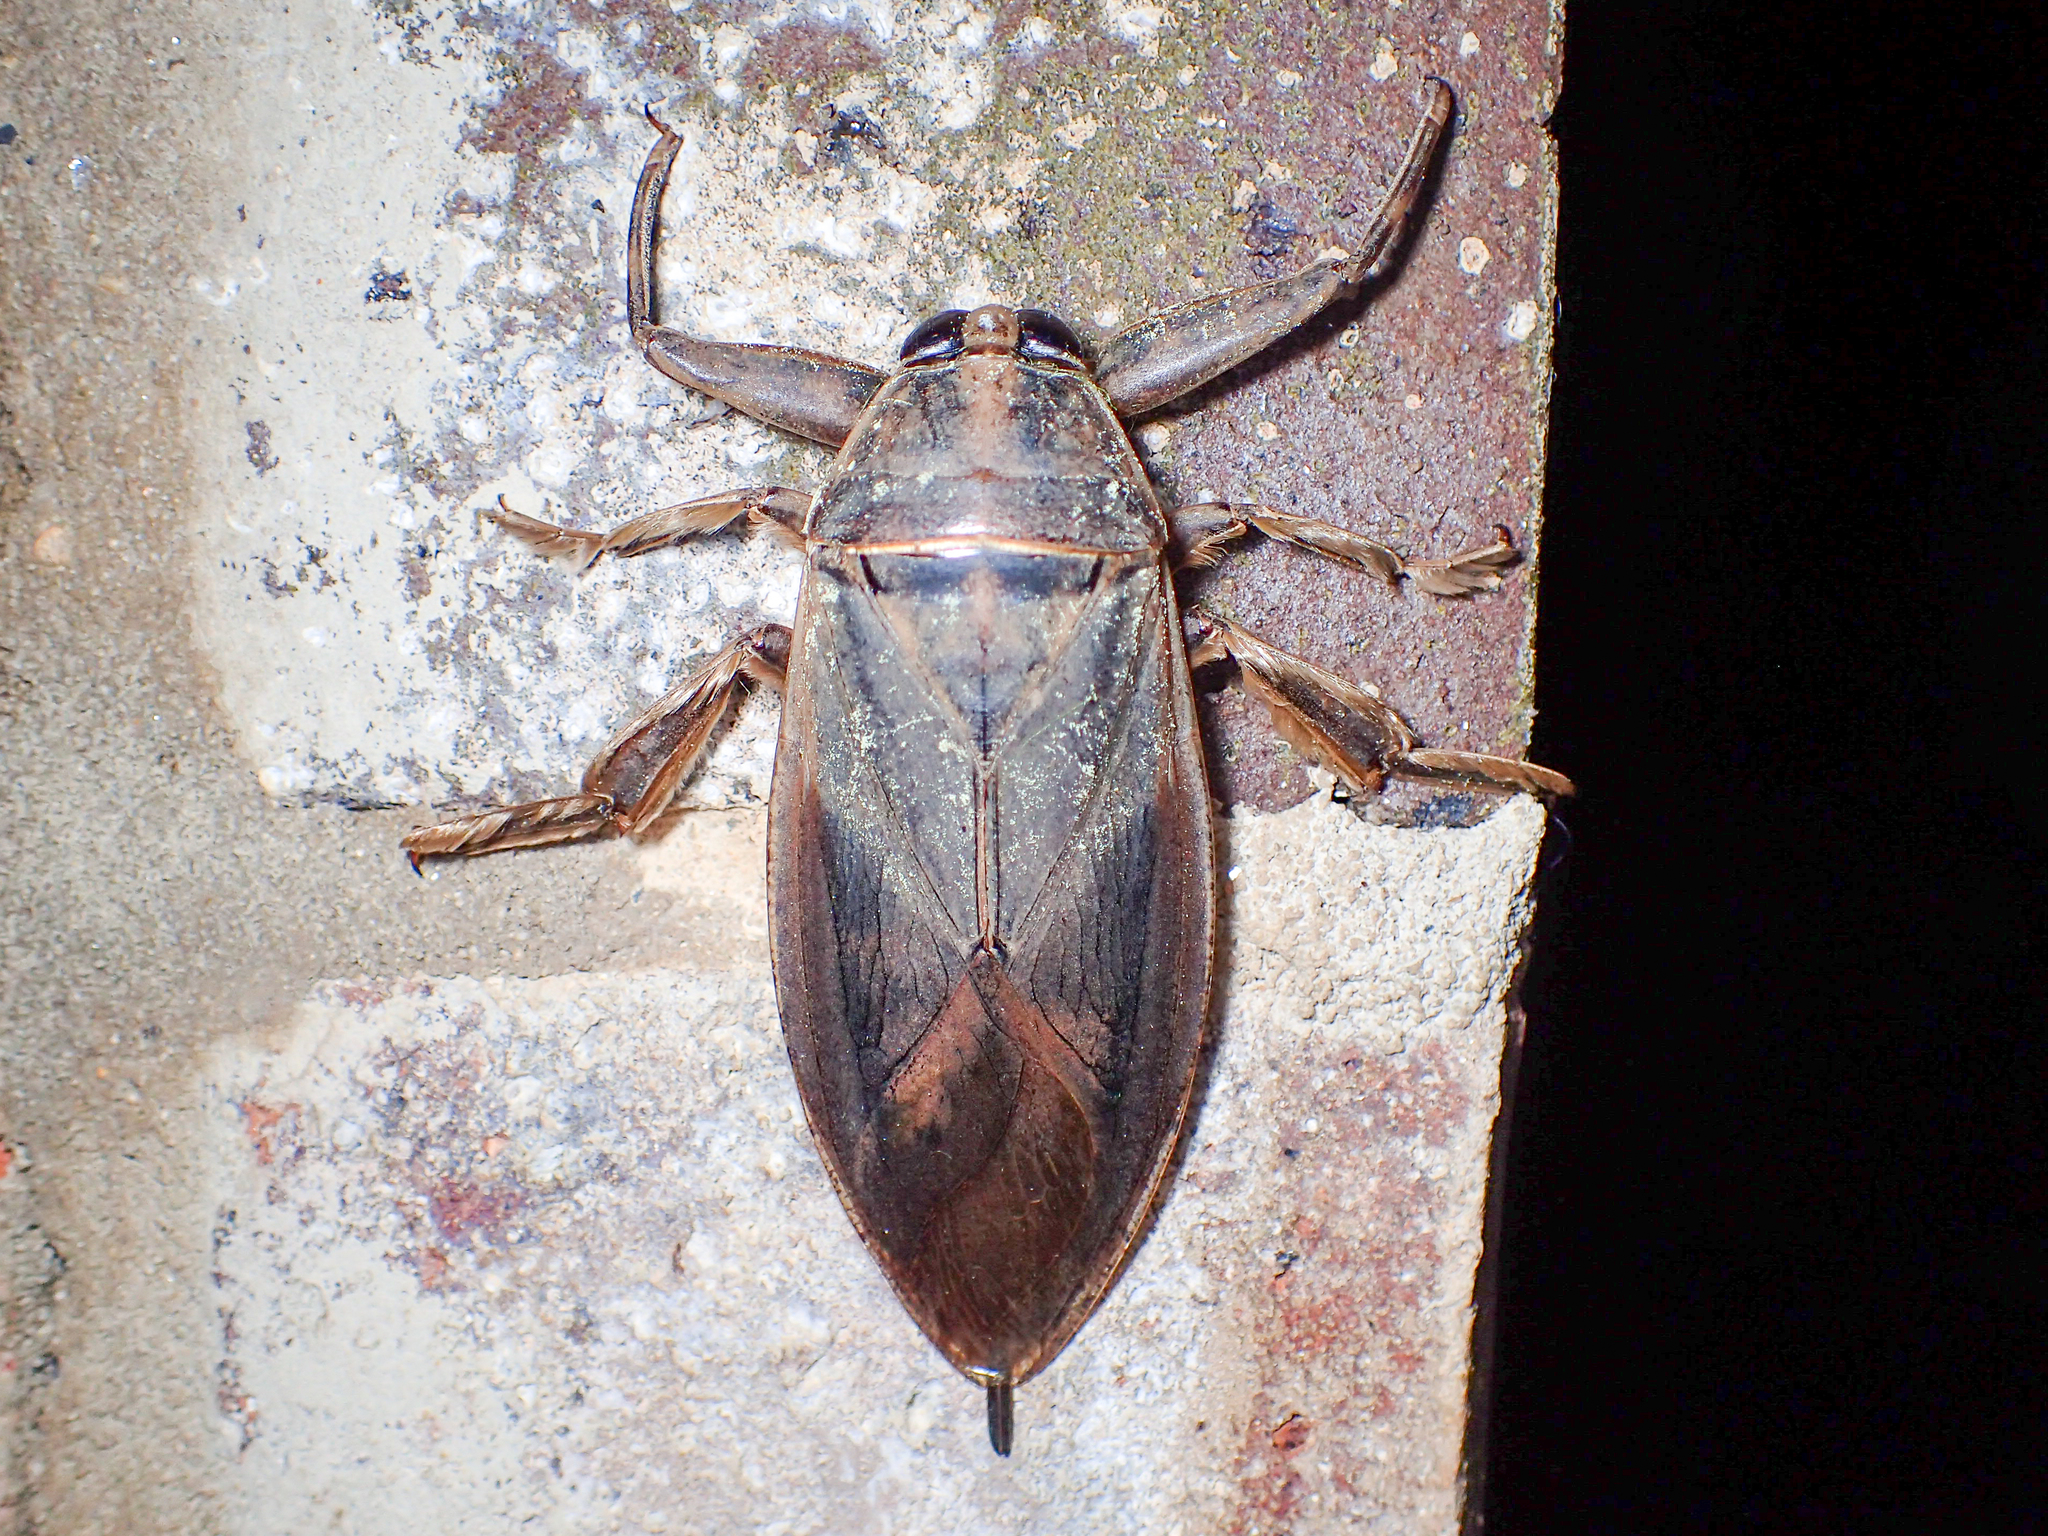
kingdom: Animalia
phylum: Arthropoda
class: Insecta
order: Hemiptera
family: Belostomatidae
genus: Benacus
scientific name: Benacus griseus
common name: Eastern toe-biter
